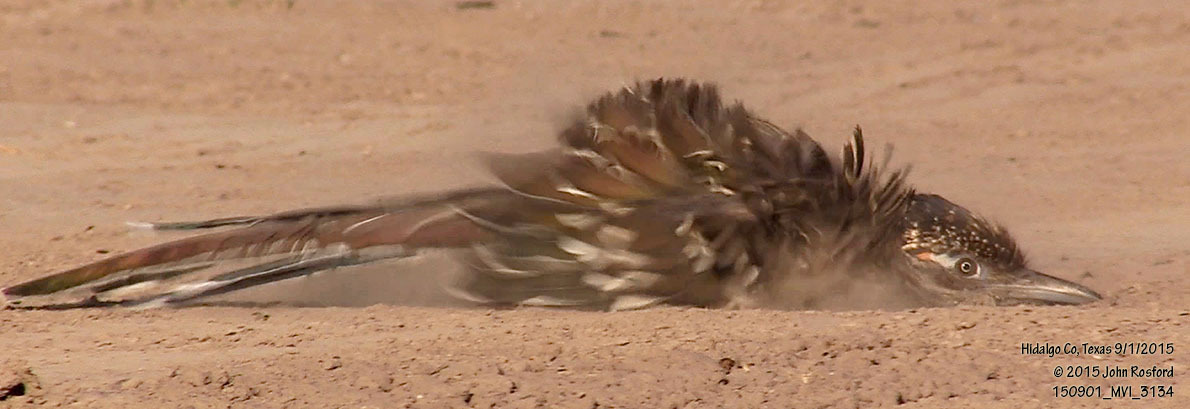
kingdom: Animalia
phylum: Chordata
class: Aves
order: Cuculiformes
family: Cuculidae
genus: Geococcyx
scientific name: Geococcyx californianus
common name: Greater roadrunner
